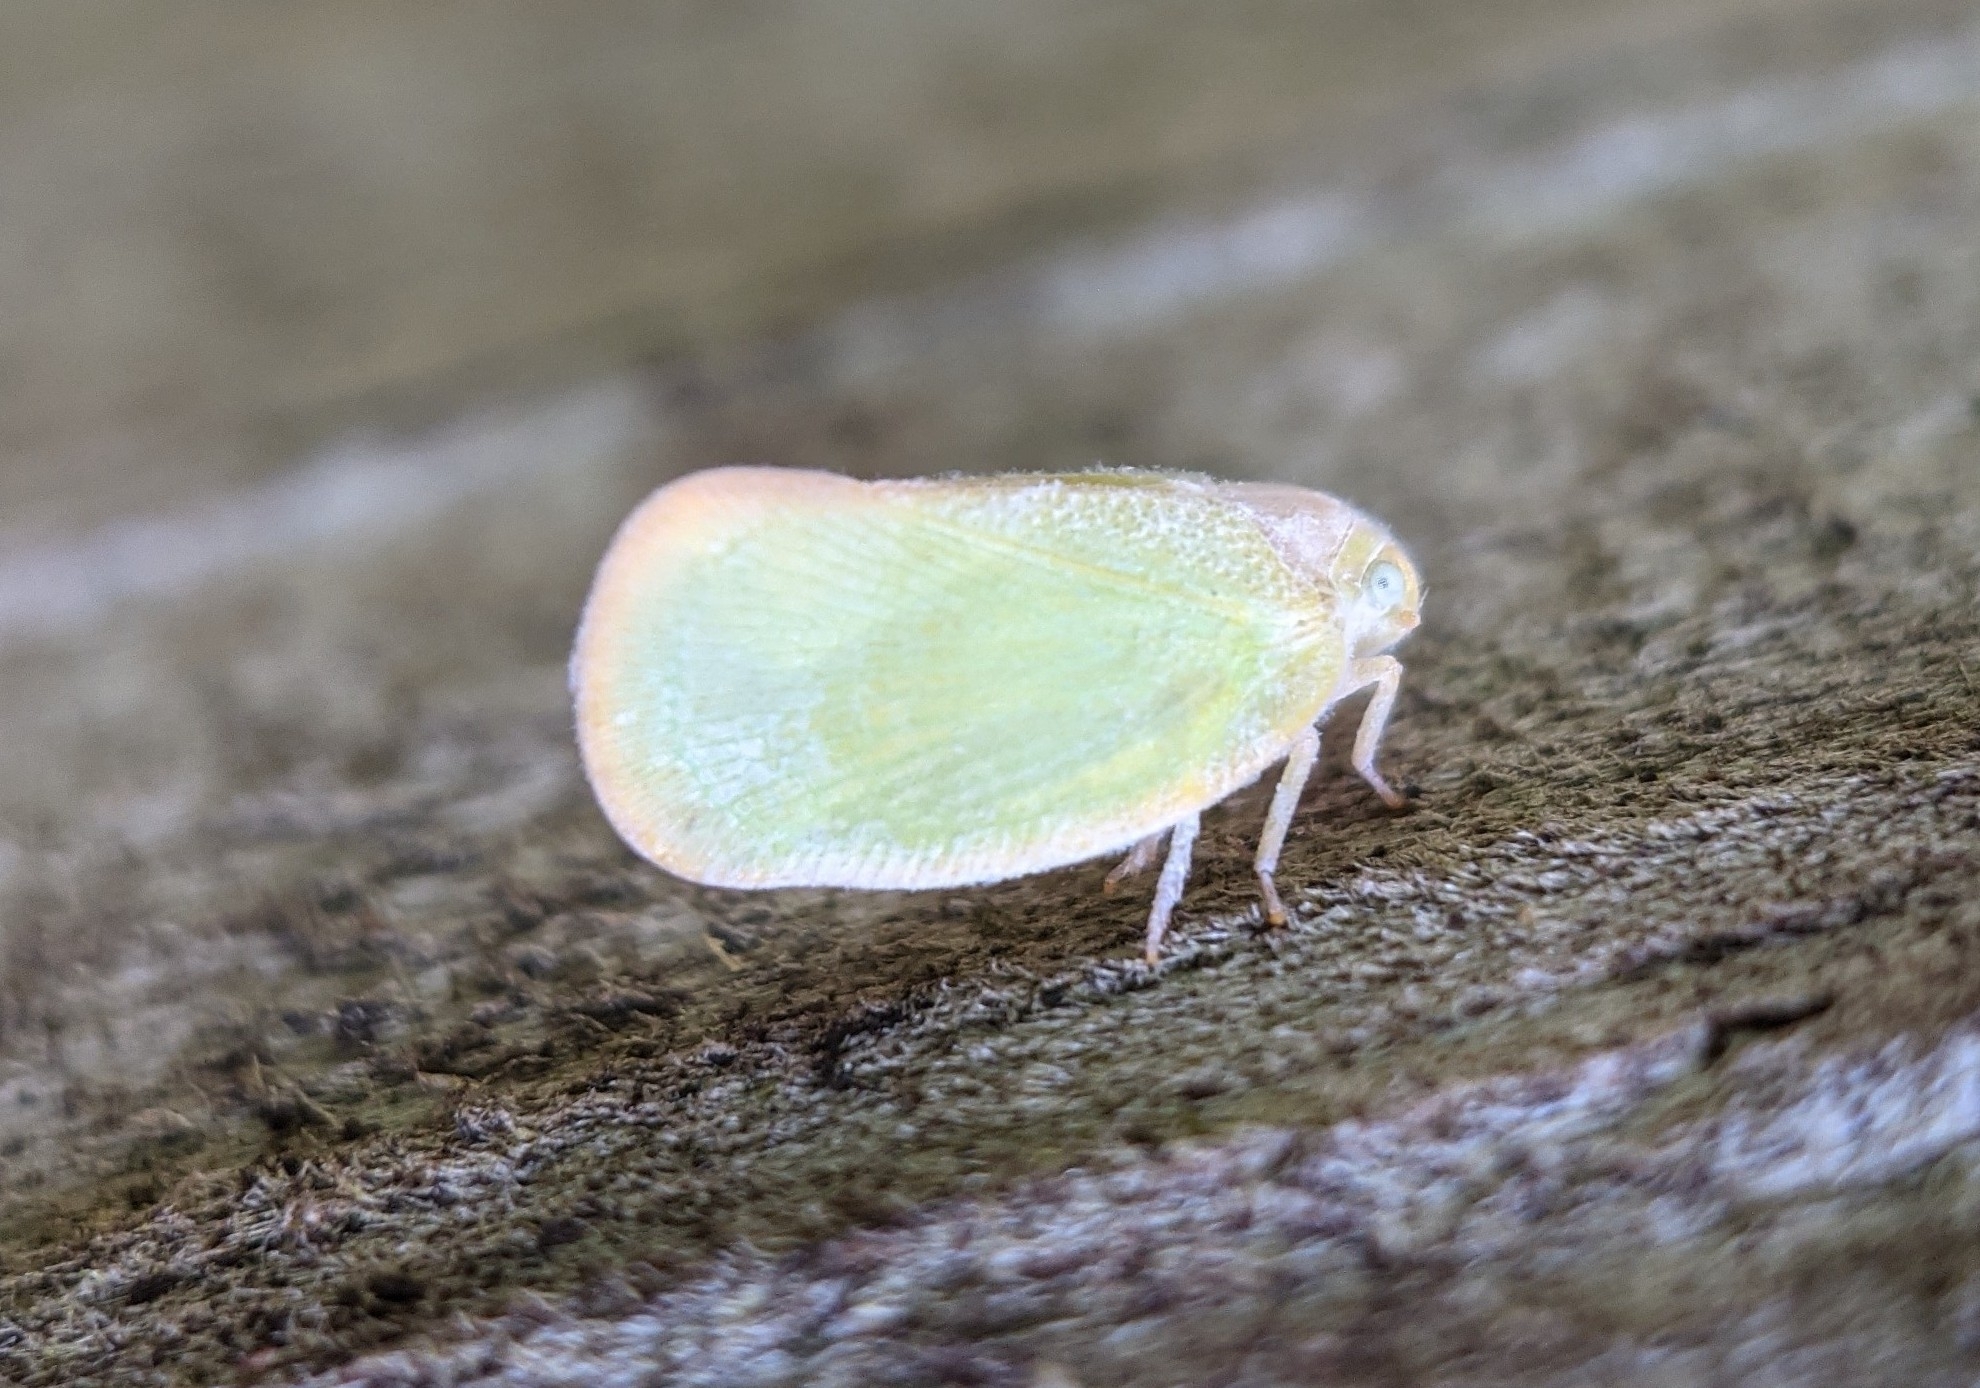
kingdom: Animalia
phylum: Arthropoda
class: Insecta
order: Hemiptera
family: Flatidae
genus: Ormenoides
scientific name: Ormenoides venusta
